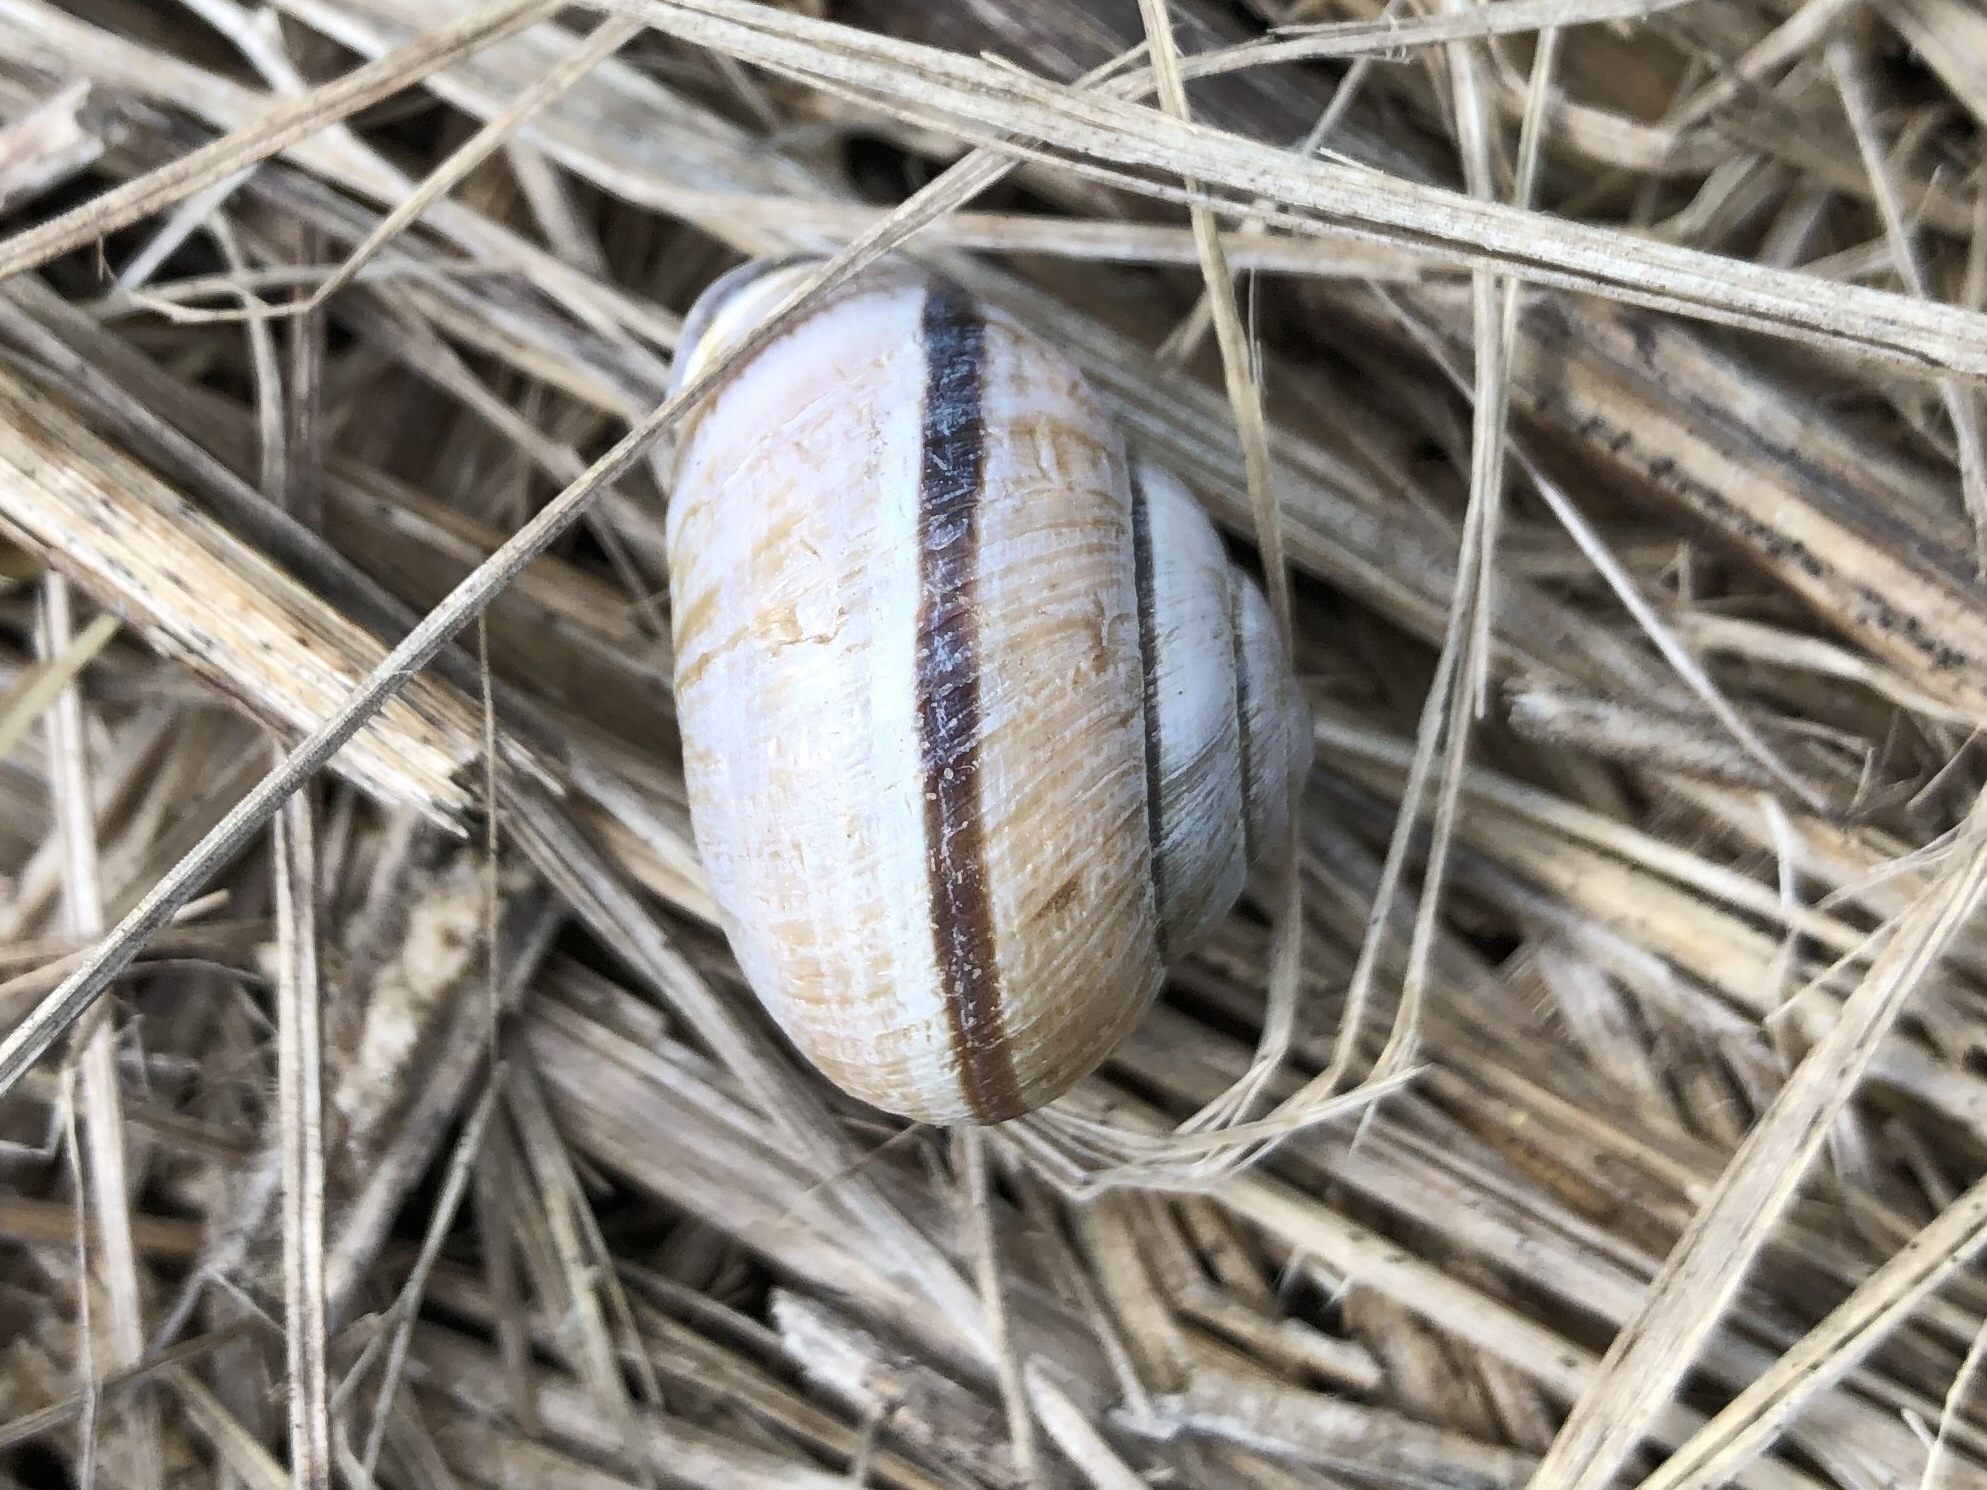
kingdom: Animalia
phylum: Mollusca
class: Gastropoda
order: Stylommatophora
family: Helicidae
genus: Cepaea
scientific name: Cepaea nemoralis
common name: Grovesnail
